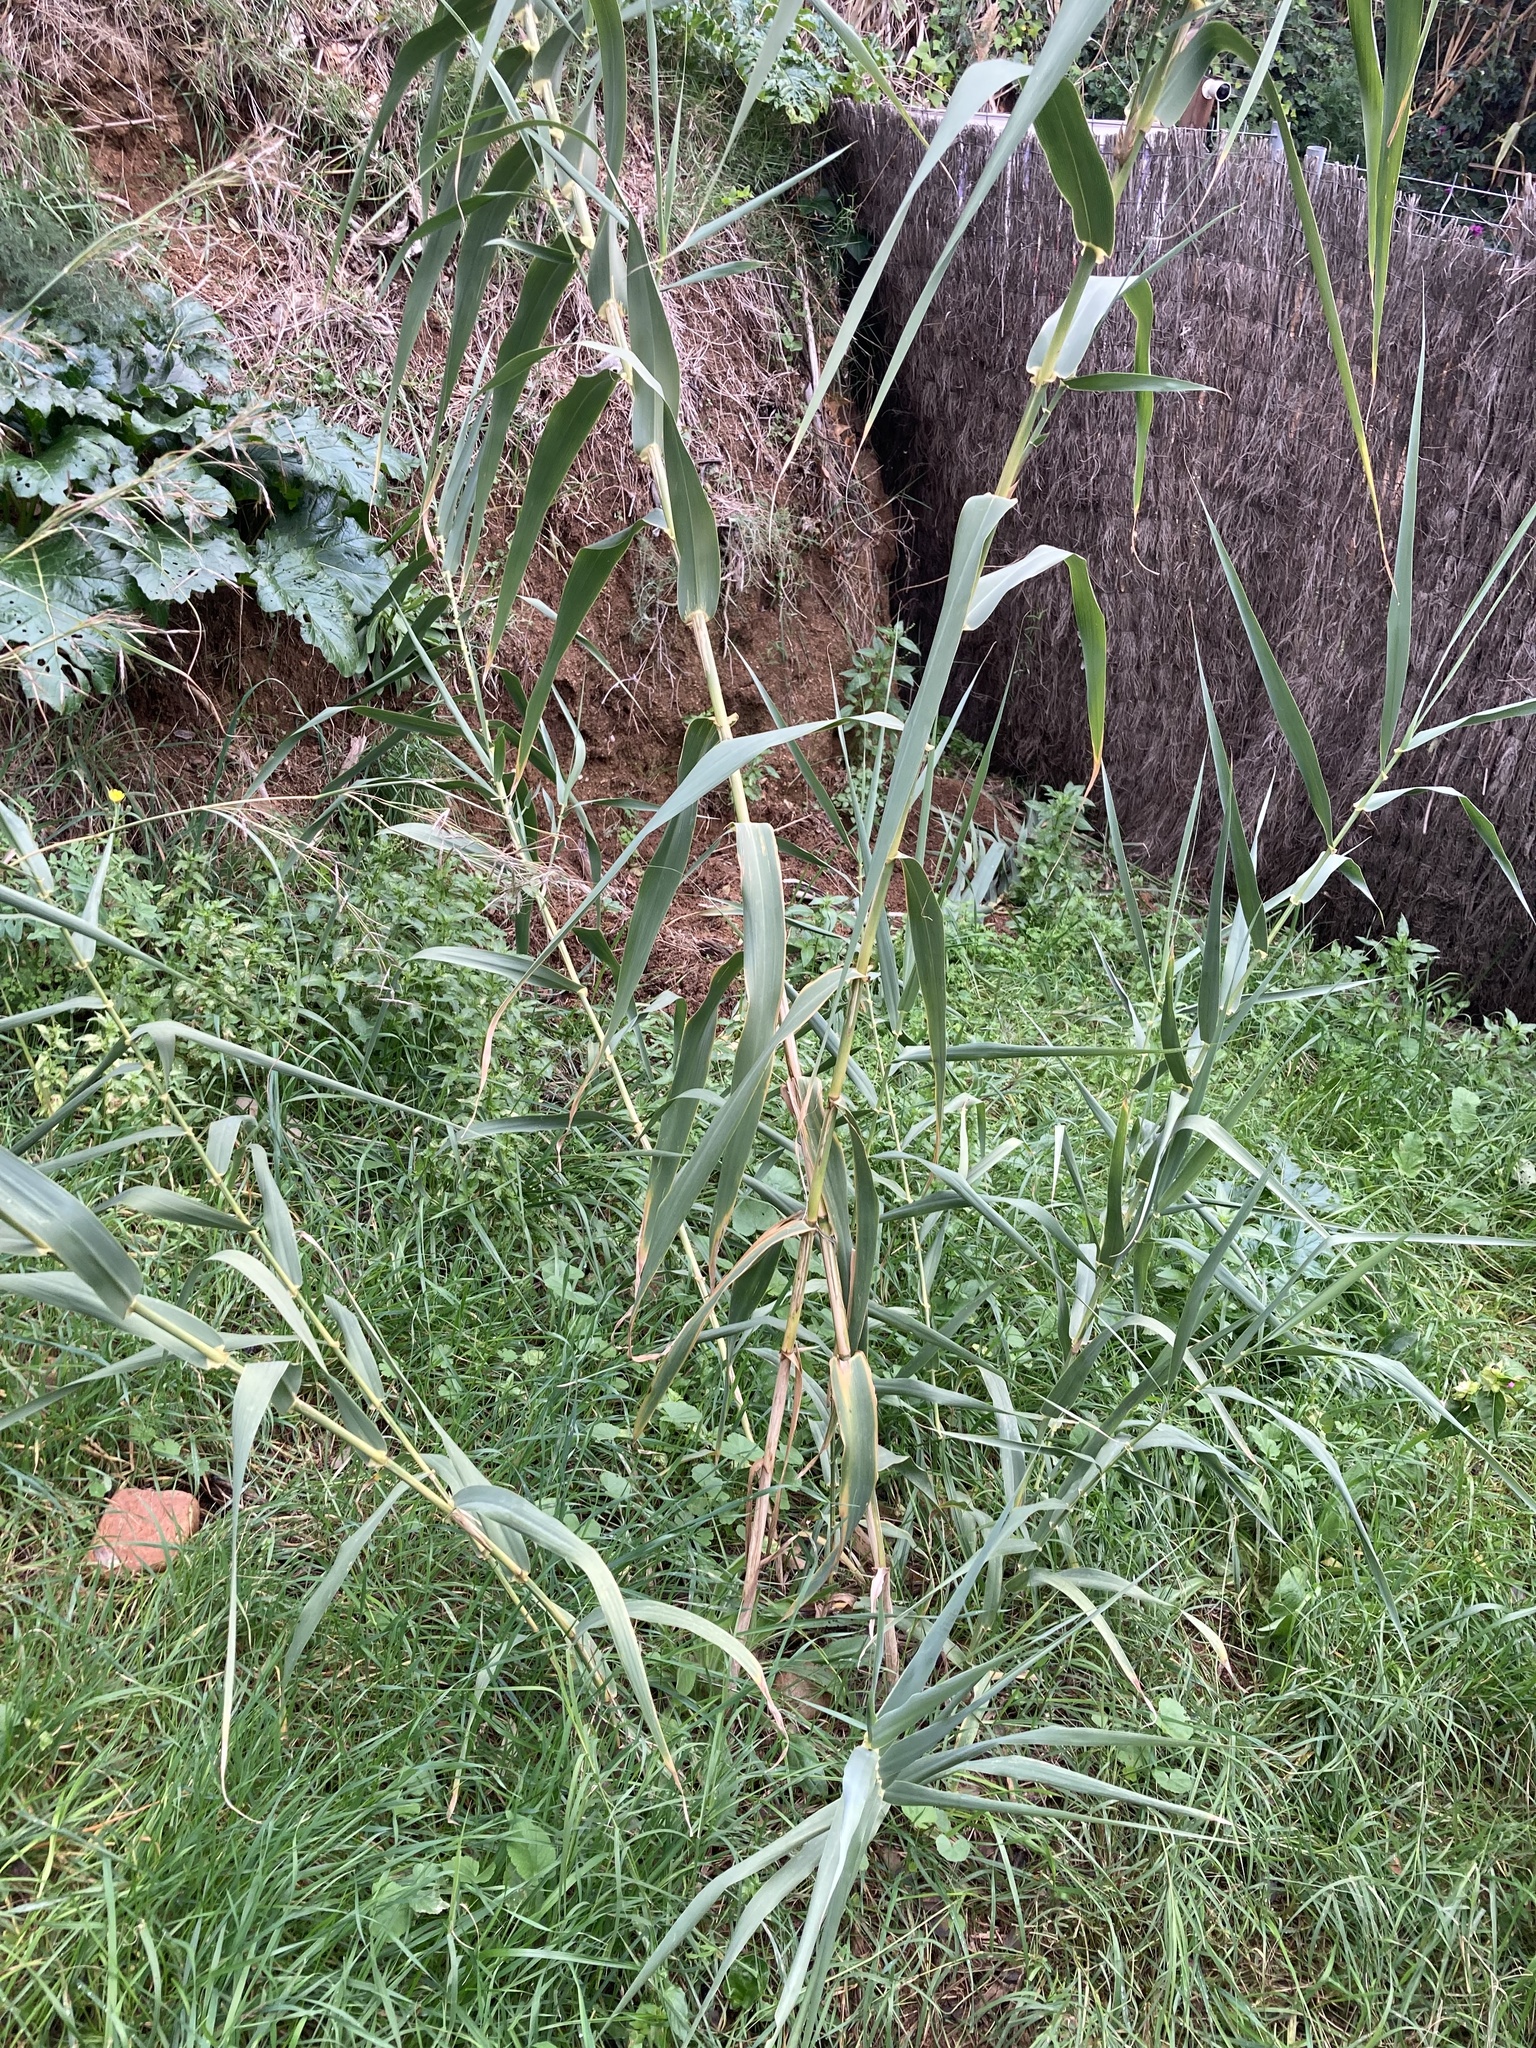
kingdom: Plantae
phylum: Tracheophyta
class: Liliopsida
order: Poales
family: Poaceae
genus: Arundo
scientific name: Arundo donax
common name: Giant reed
